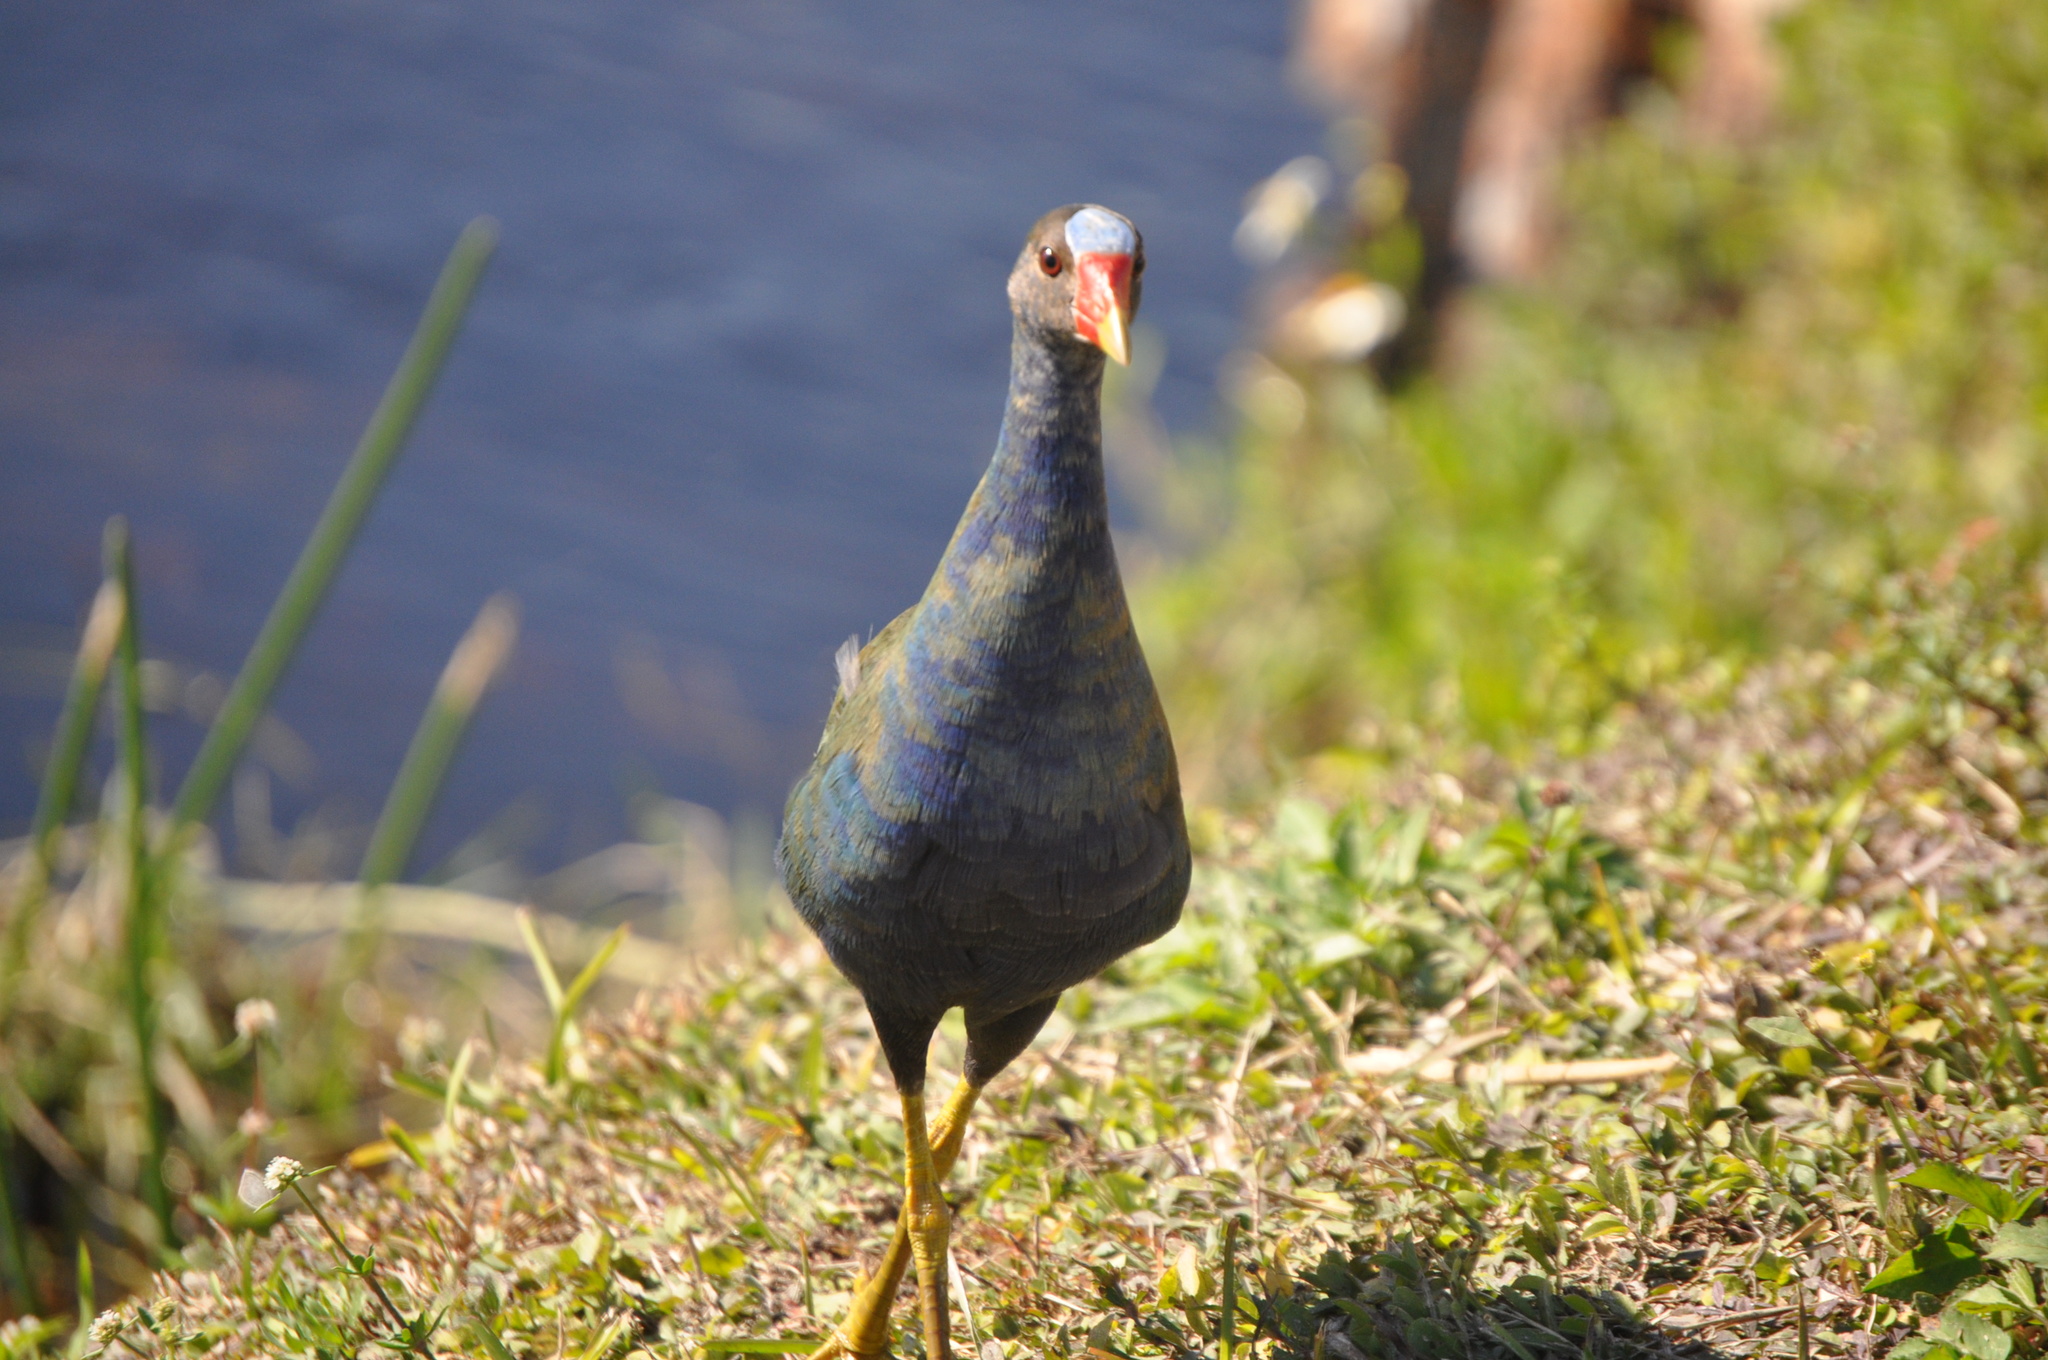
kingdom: Animalia
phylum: Chordata
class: Aves
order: Gruiformes
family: Rallidae
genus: Porphyrio
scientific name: Porphyrio martinica
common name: Purple gallinule
